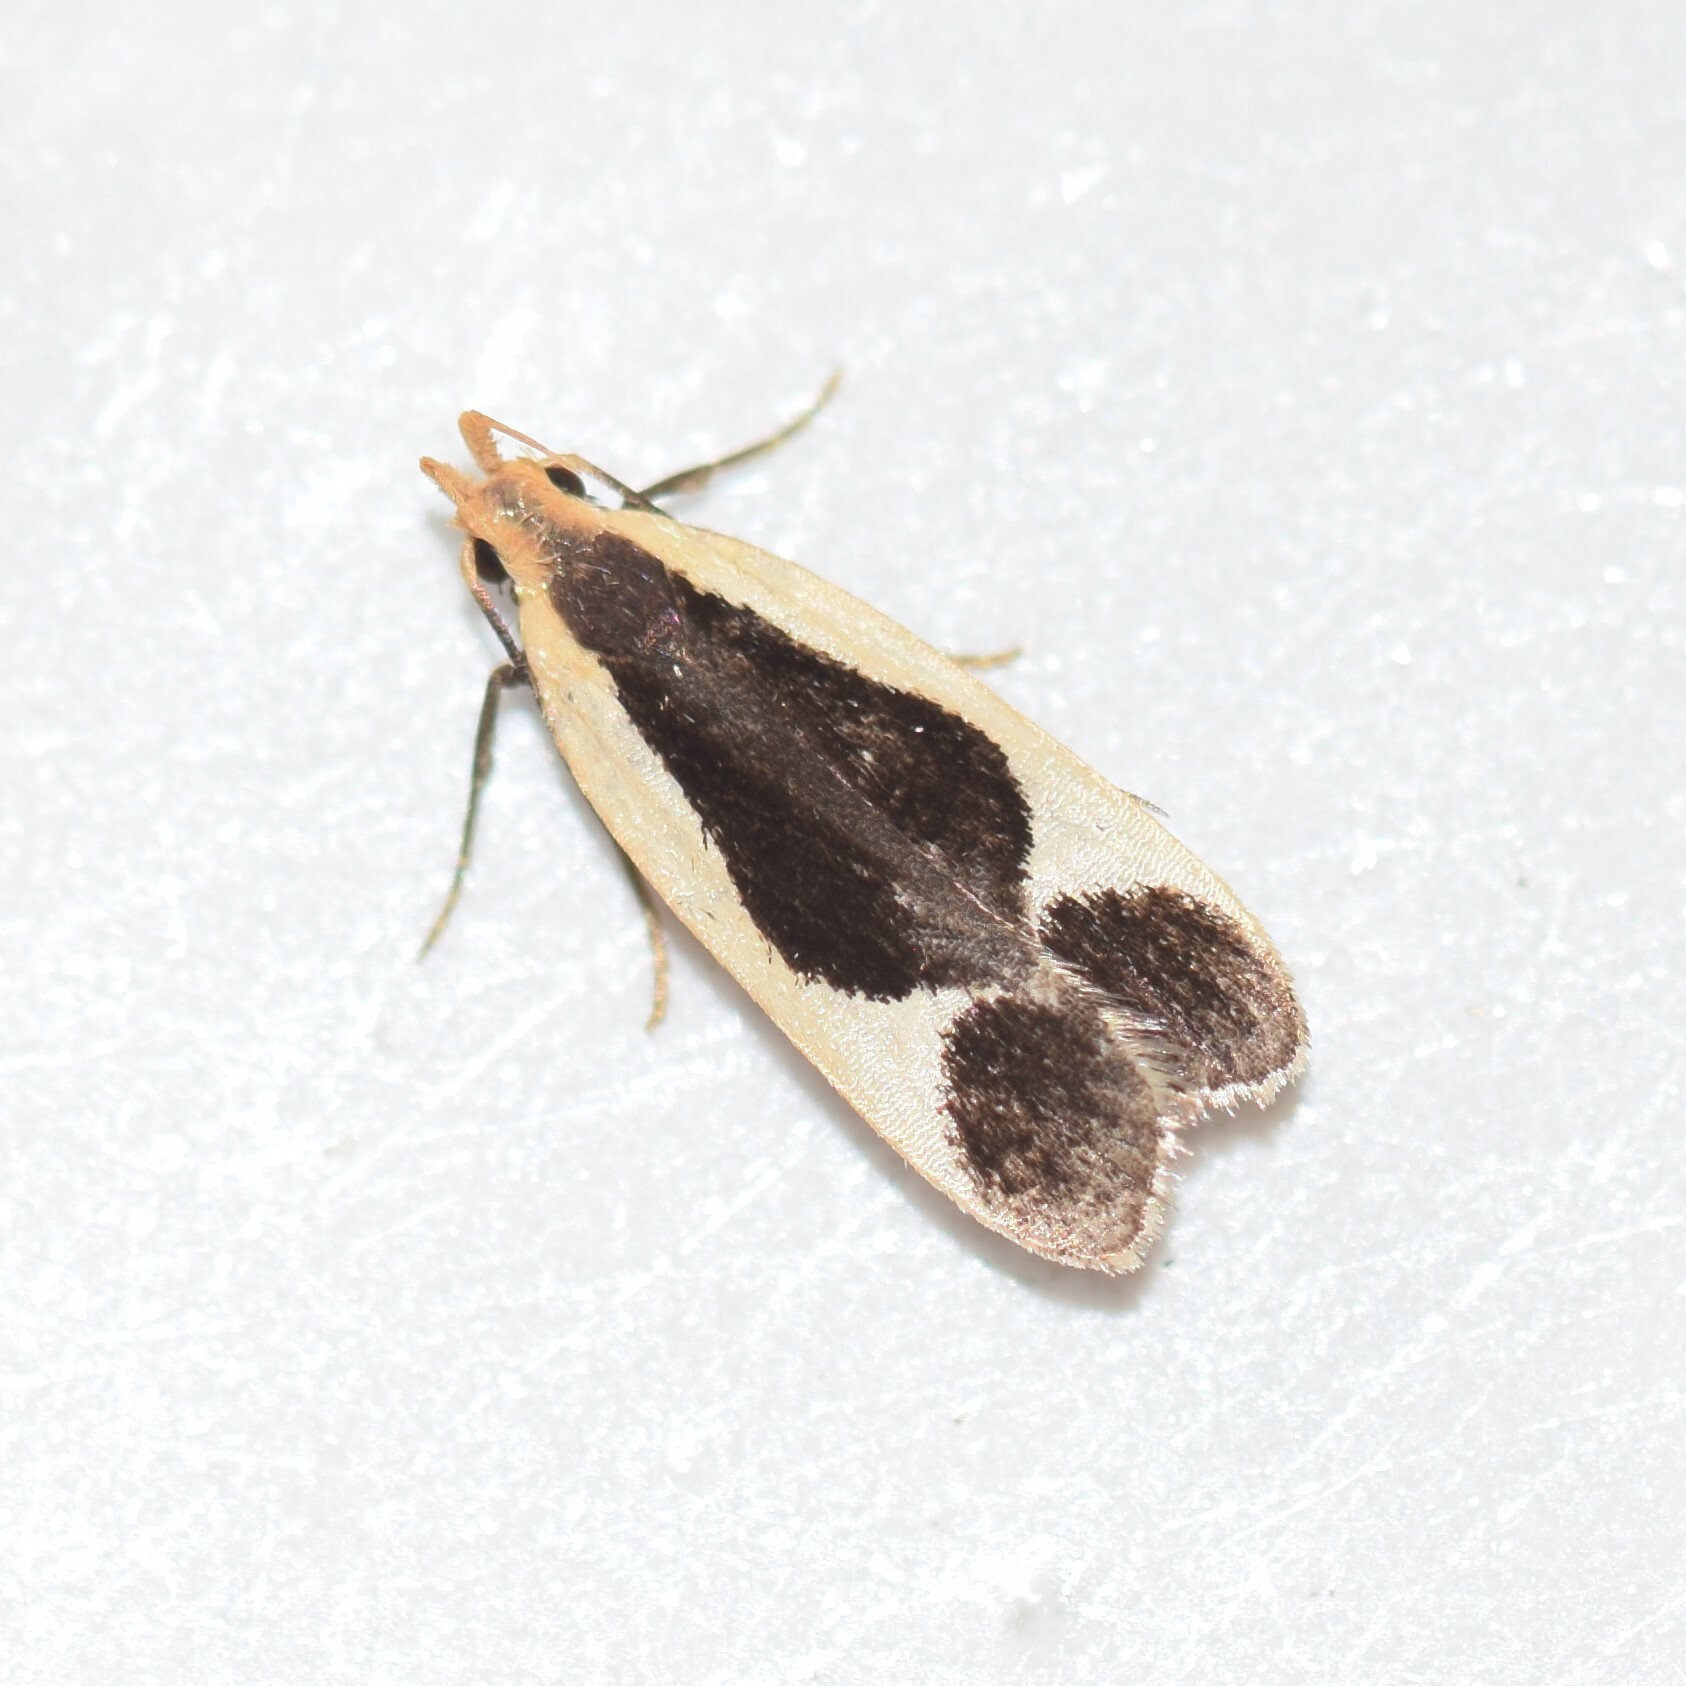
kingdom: Animalia
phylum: Arthropoda
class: Insecta
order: Lepidoptera
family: Gelechiidae
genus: Dichomeris
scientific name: Dichomeris flavocostella
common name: Cream-edged dichomeris moth
